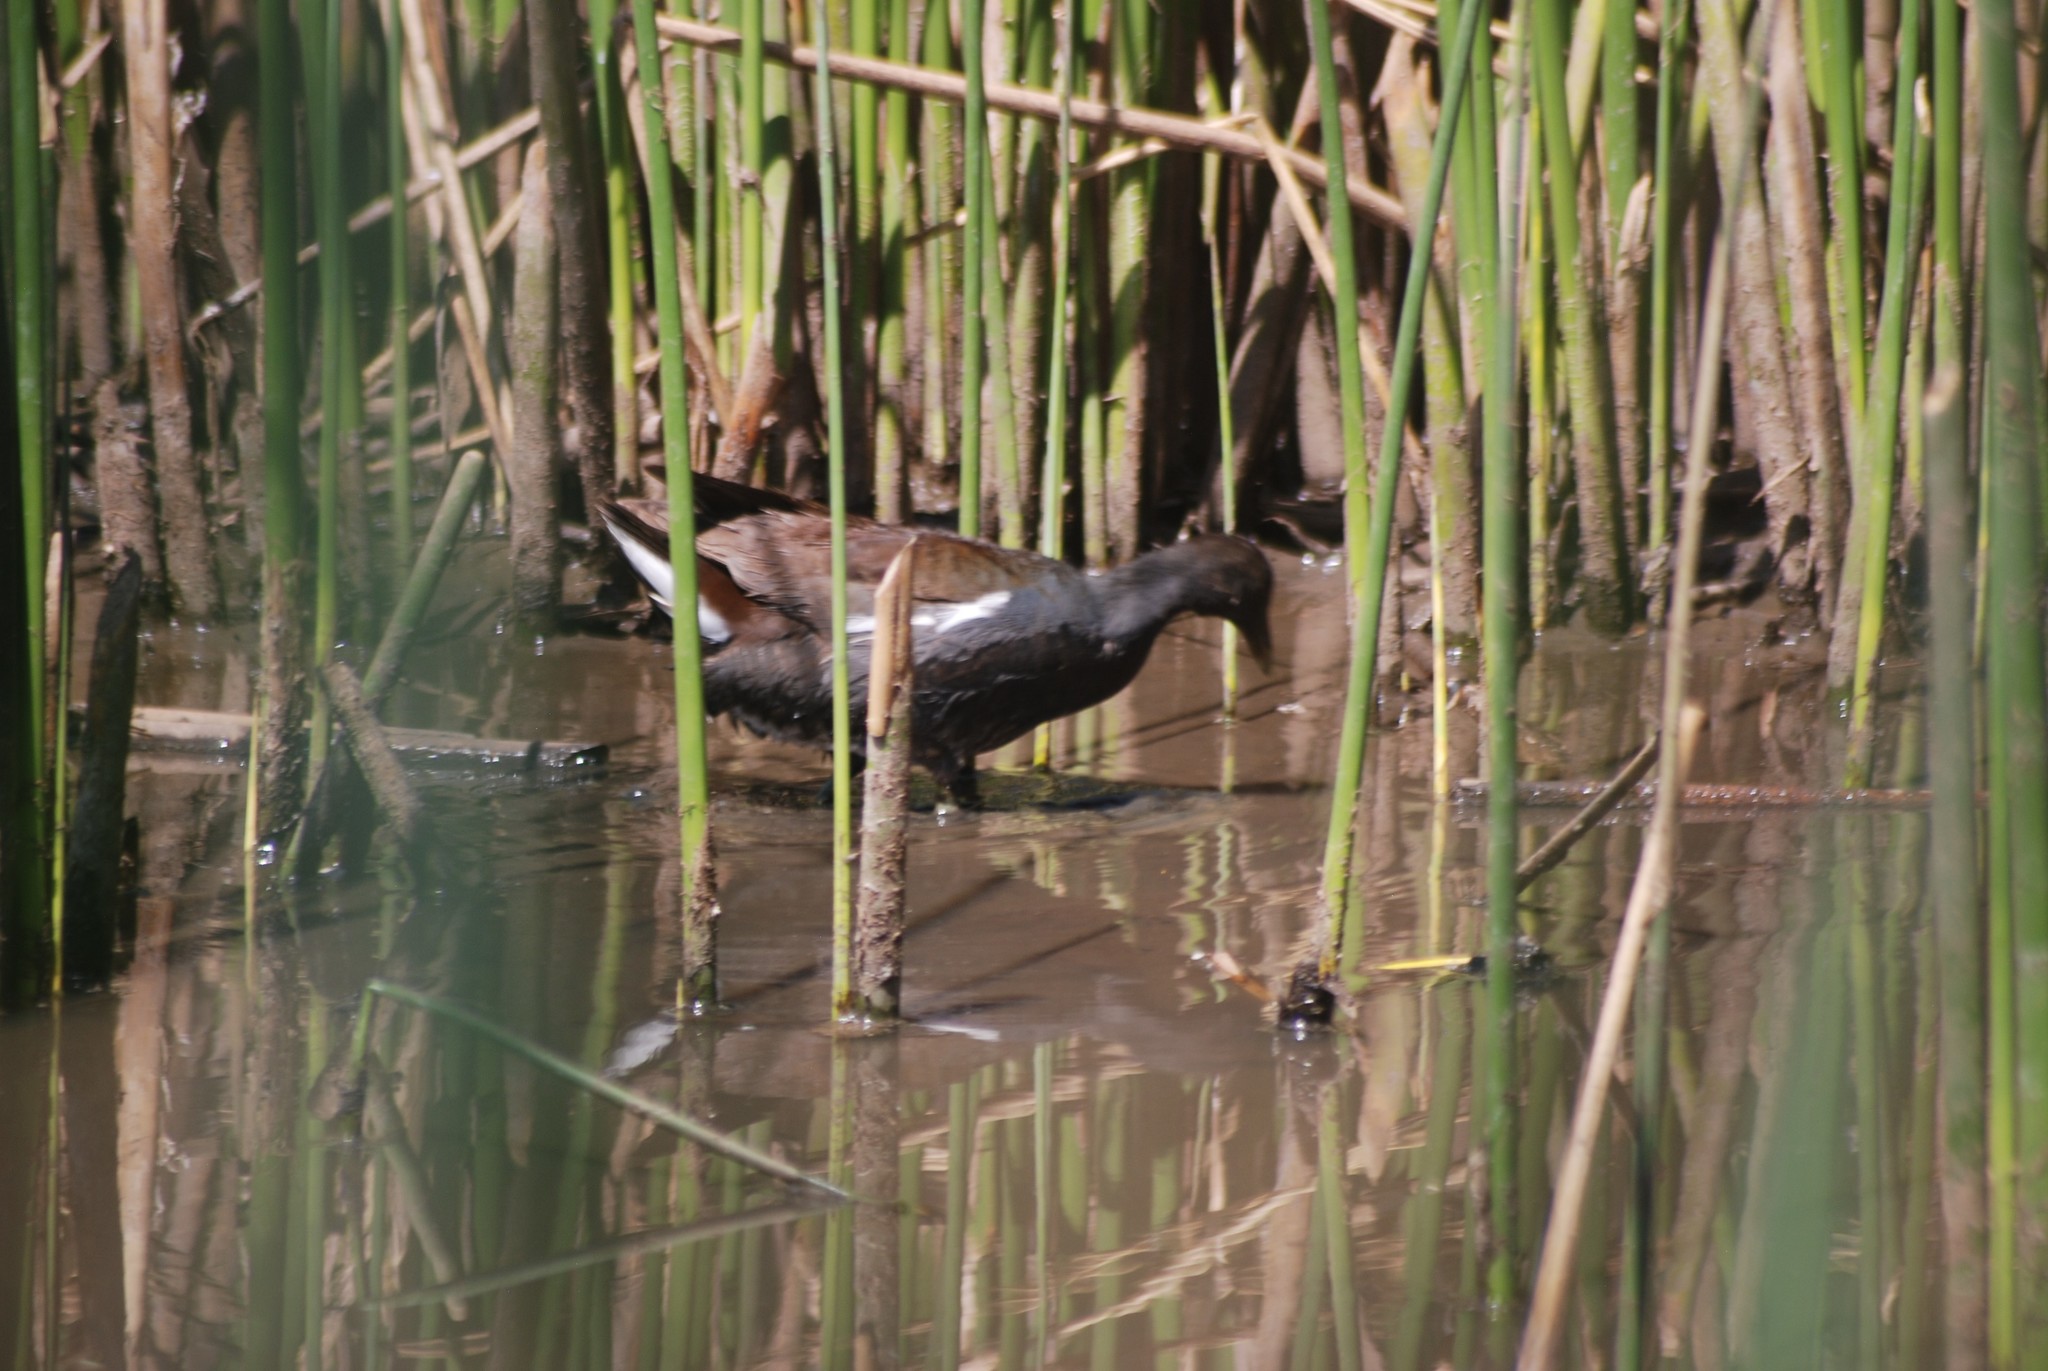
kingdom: Animalia
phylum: Chordata
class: Aves
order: Gruiformes
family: Rallidae
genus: Gallinula
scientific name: Gallinula chloropus
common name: Common moorhen
